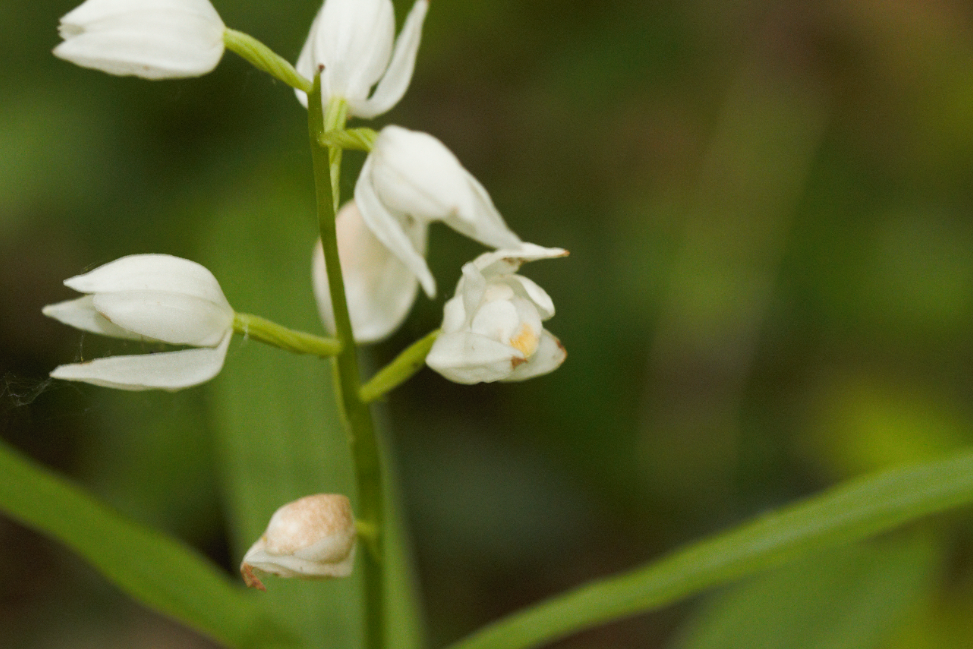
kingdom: Plantae
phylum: Tracheophyta
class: Liliopsida
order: Asparagales
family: Orchidaceae
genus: Cephalanthera
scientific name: Cephalanthera longifolia
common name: Narrow-leaved helleborine
